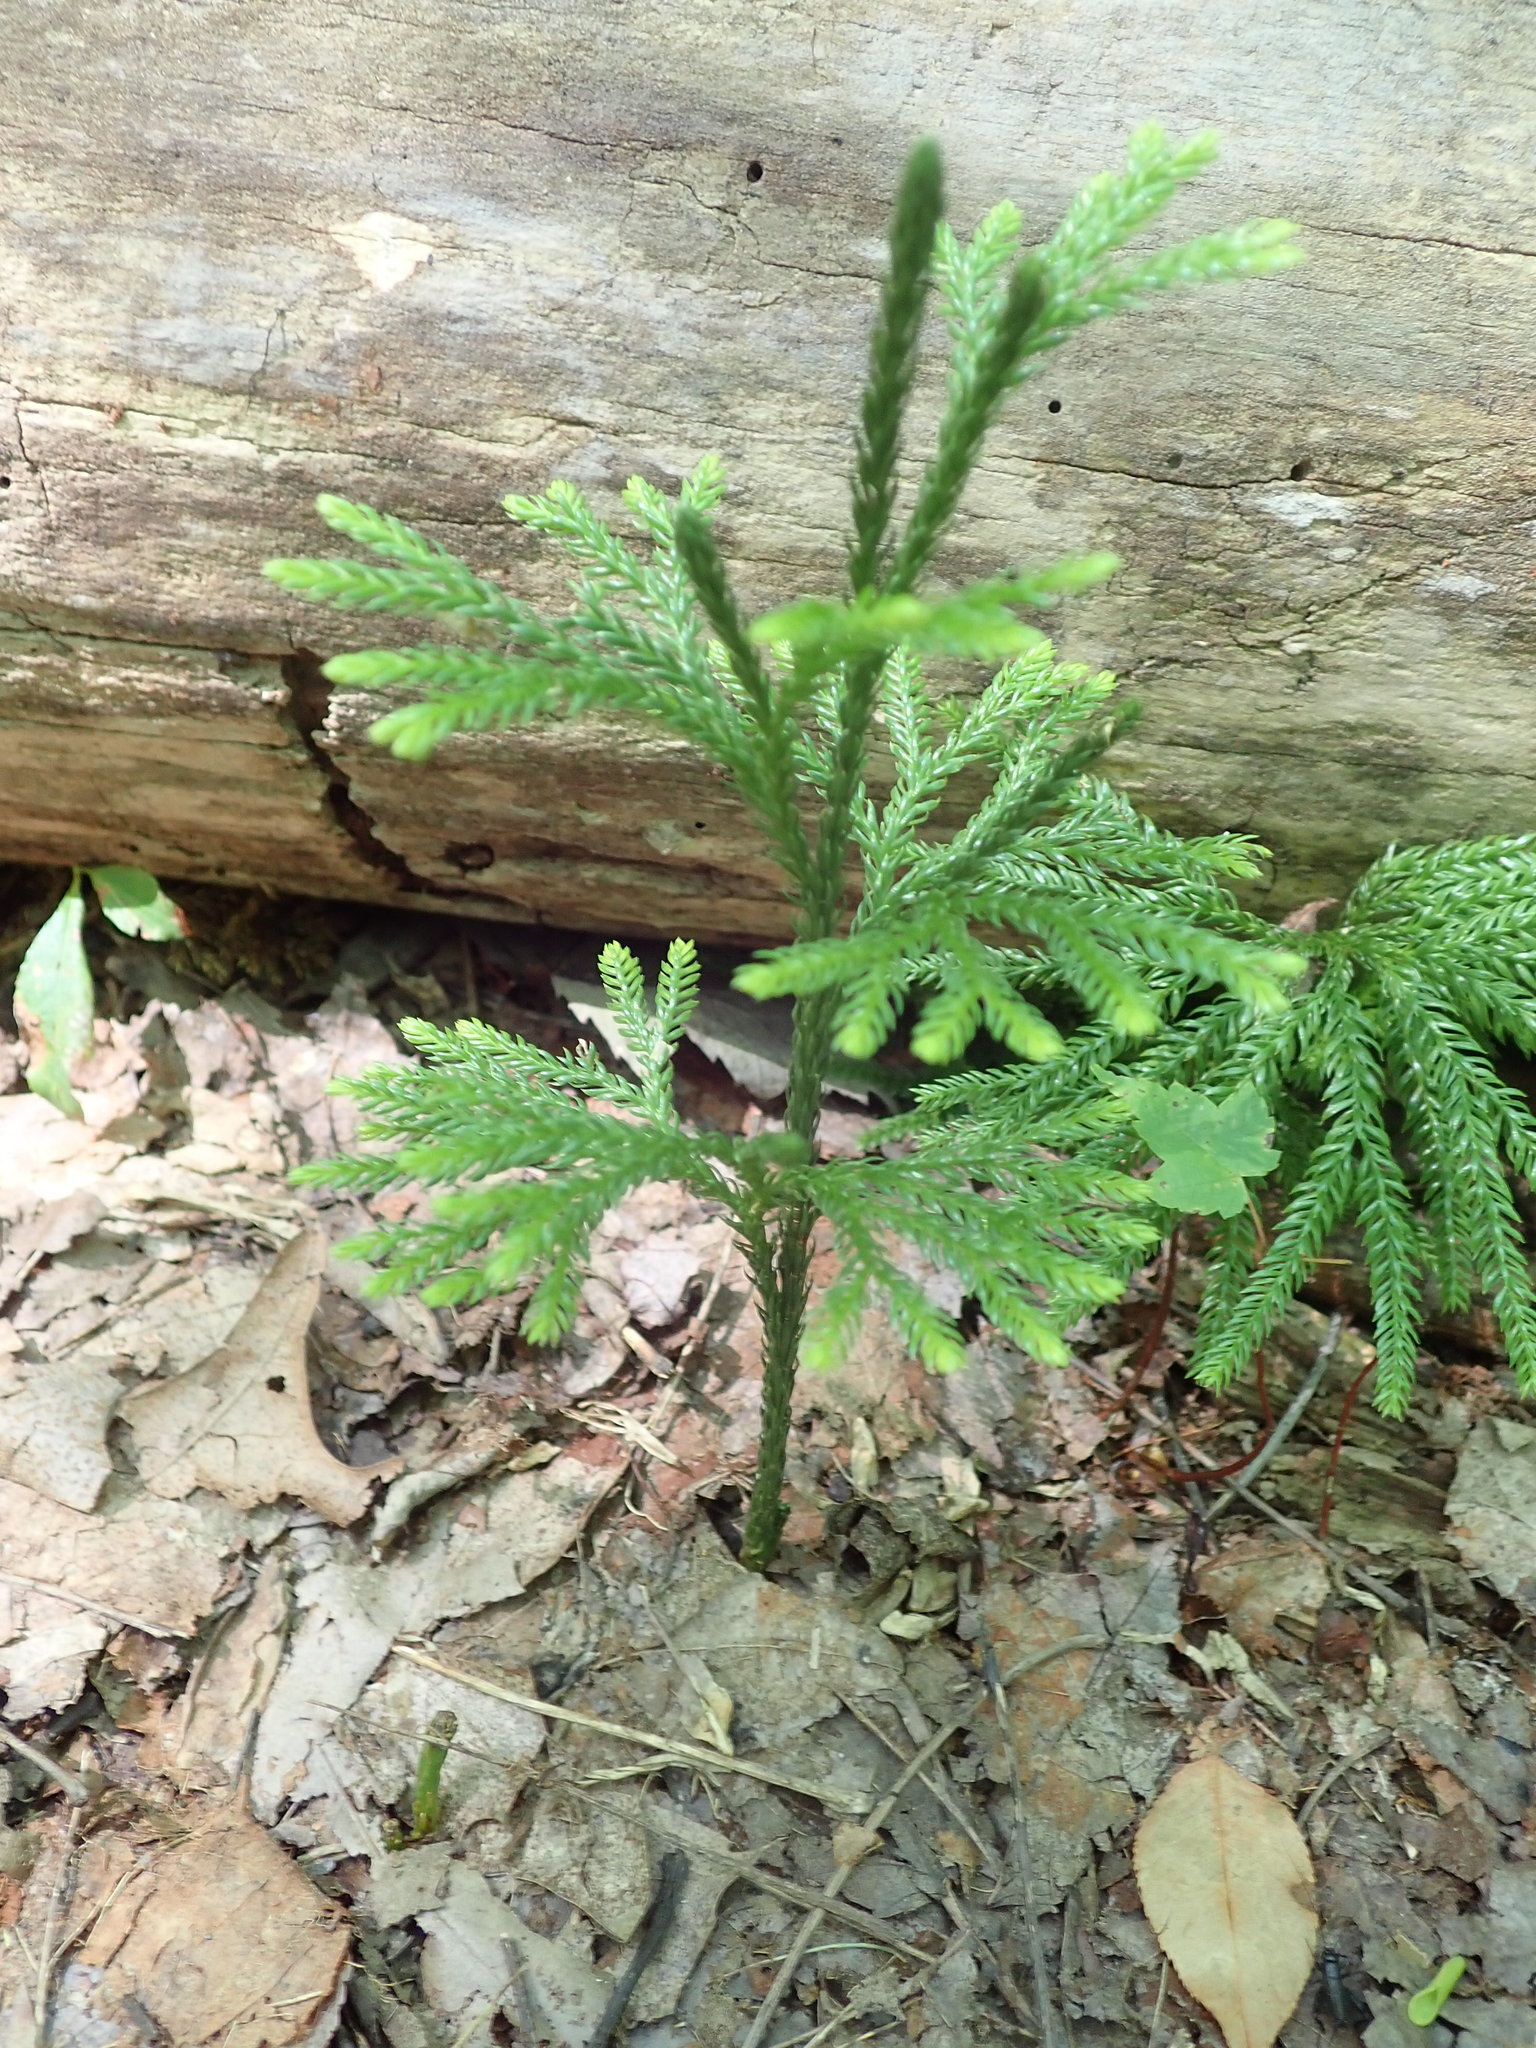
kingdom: Plantae
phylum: Tracheophyta
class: Lycopodiopsida
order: Lycopodiales
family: Lycopodiaceae
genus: Dendrolycopodium
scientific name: Dendrolycopodium obscurum
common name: Common ground-pine
